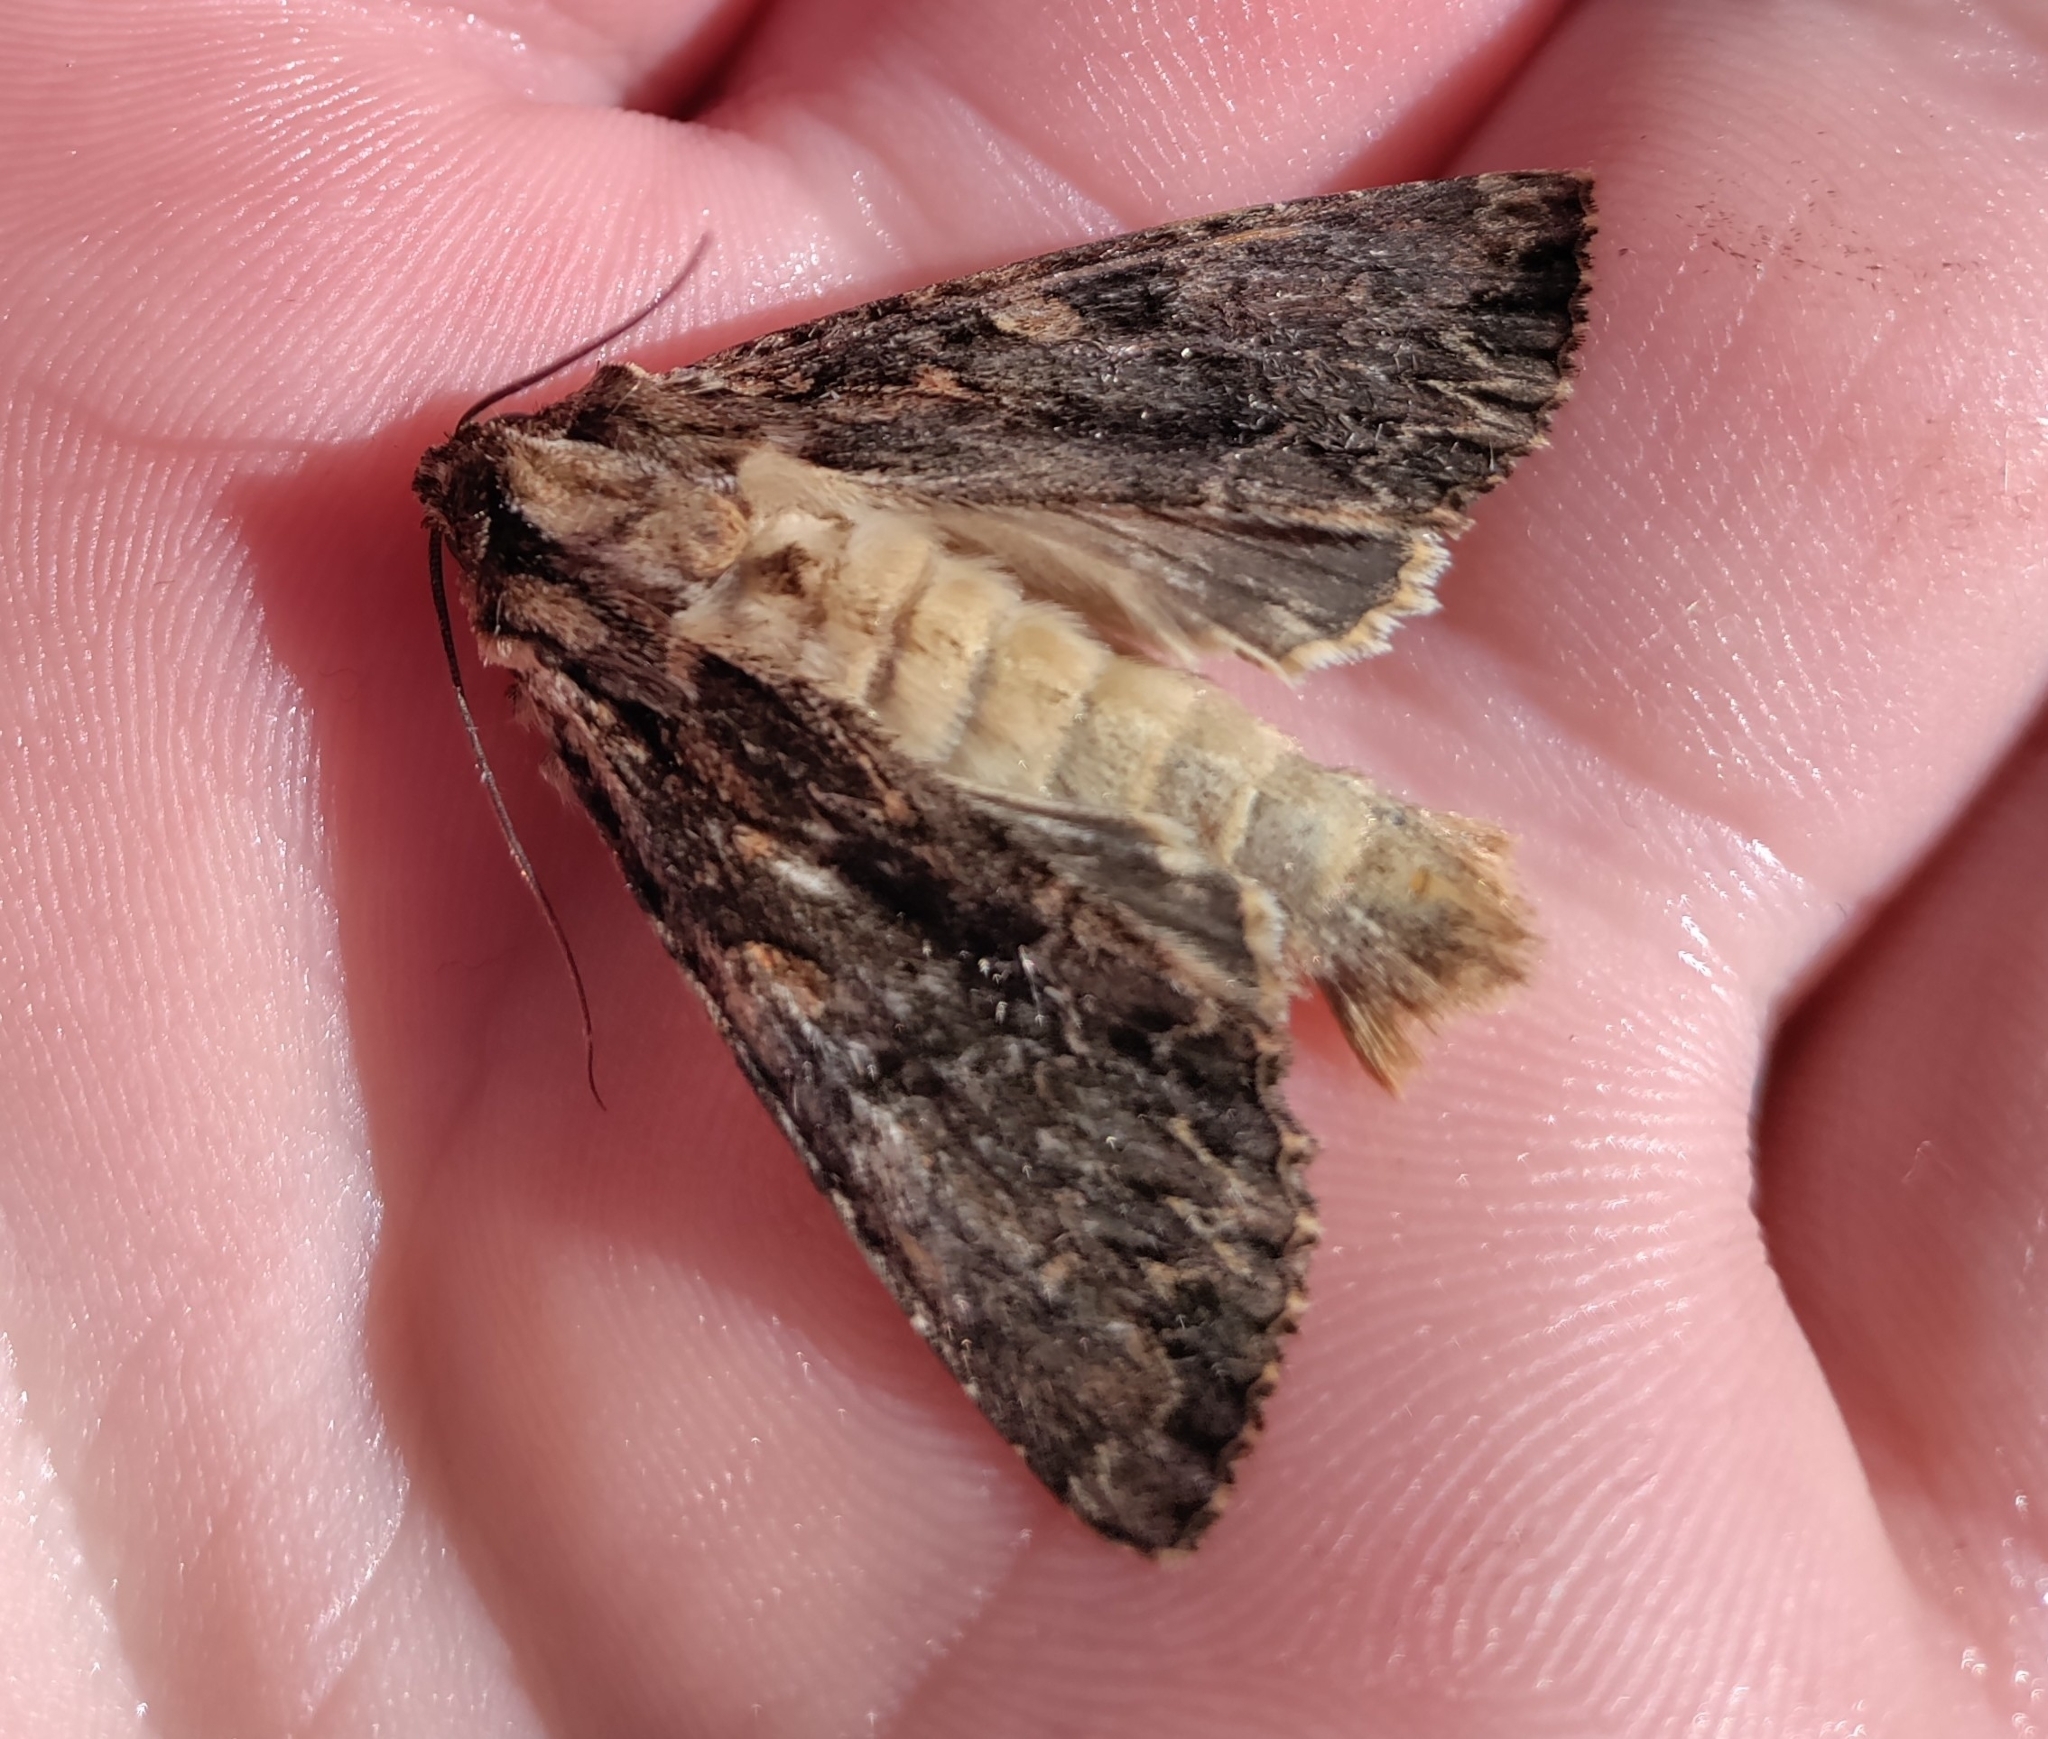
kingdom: Animalia
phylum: Arthropoda
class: Insecta
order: Lepidoptera
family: Noctuidae
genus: Apamea
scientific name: Apamea monoglypha
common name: Dark arches
